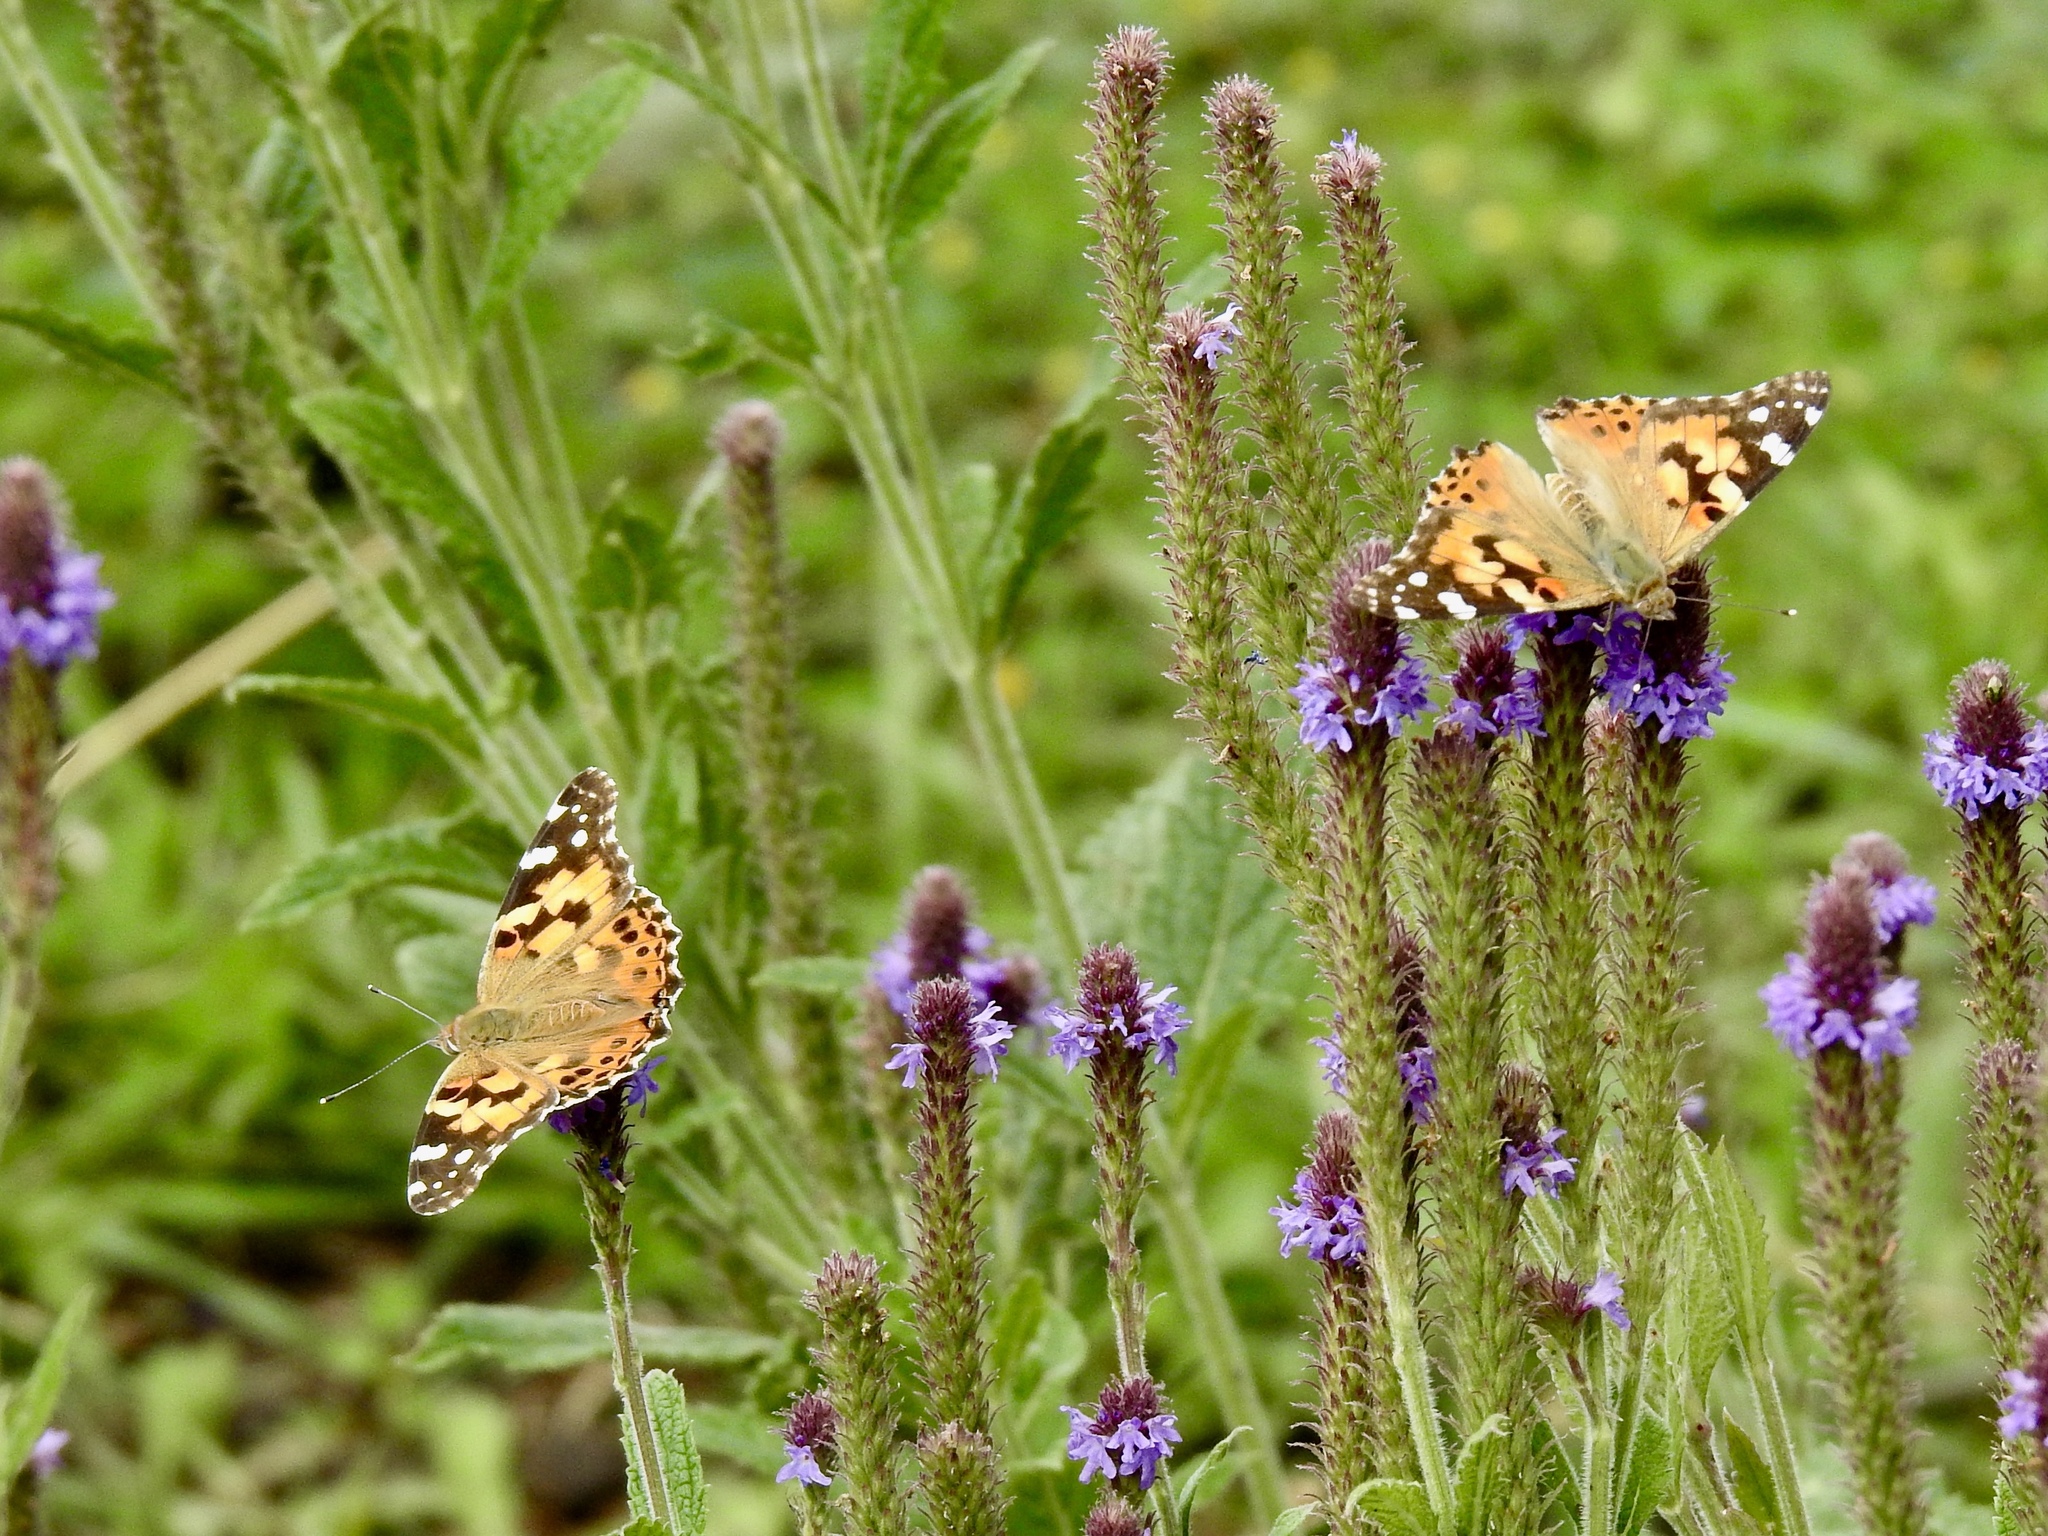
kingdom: Animalia
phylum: Arthropoda
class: Insecta
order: Lepidoptera
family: Nymphalidae
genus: Vanessa
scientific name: Vanessa cardui
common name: Painted lady
